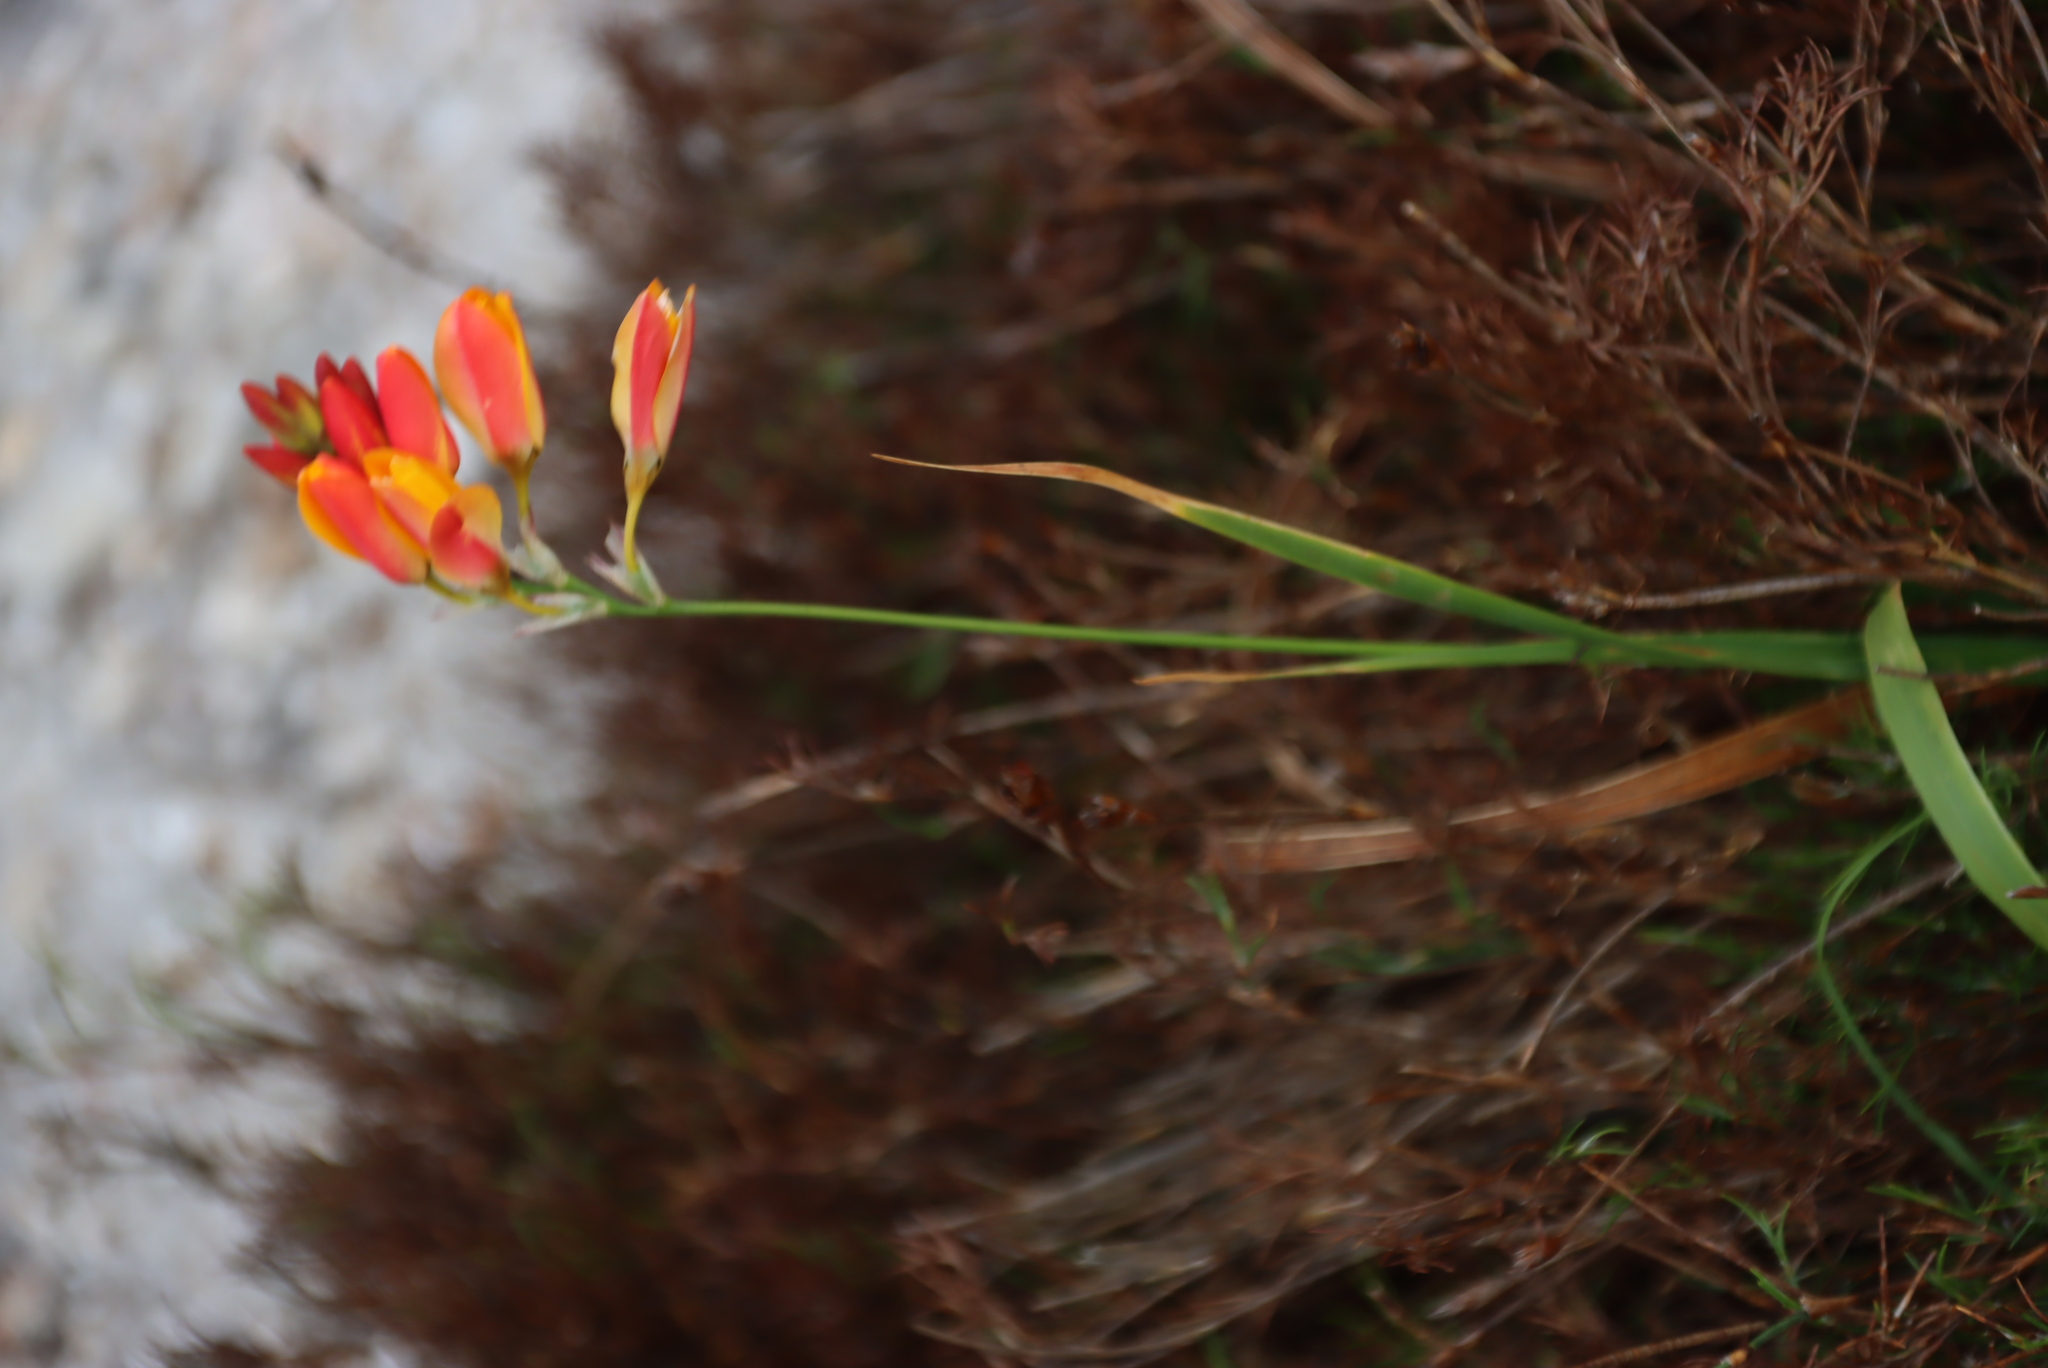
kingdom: Plantae
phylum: Tracheophyta
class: Liliopsida
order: Asparagales
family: Iridaceae
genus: Ixia
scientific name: Ixia dubia
